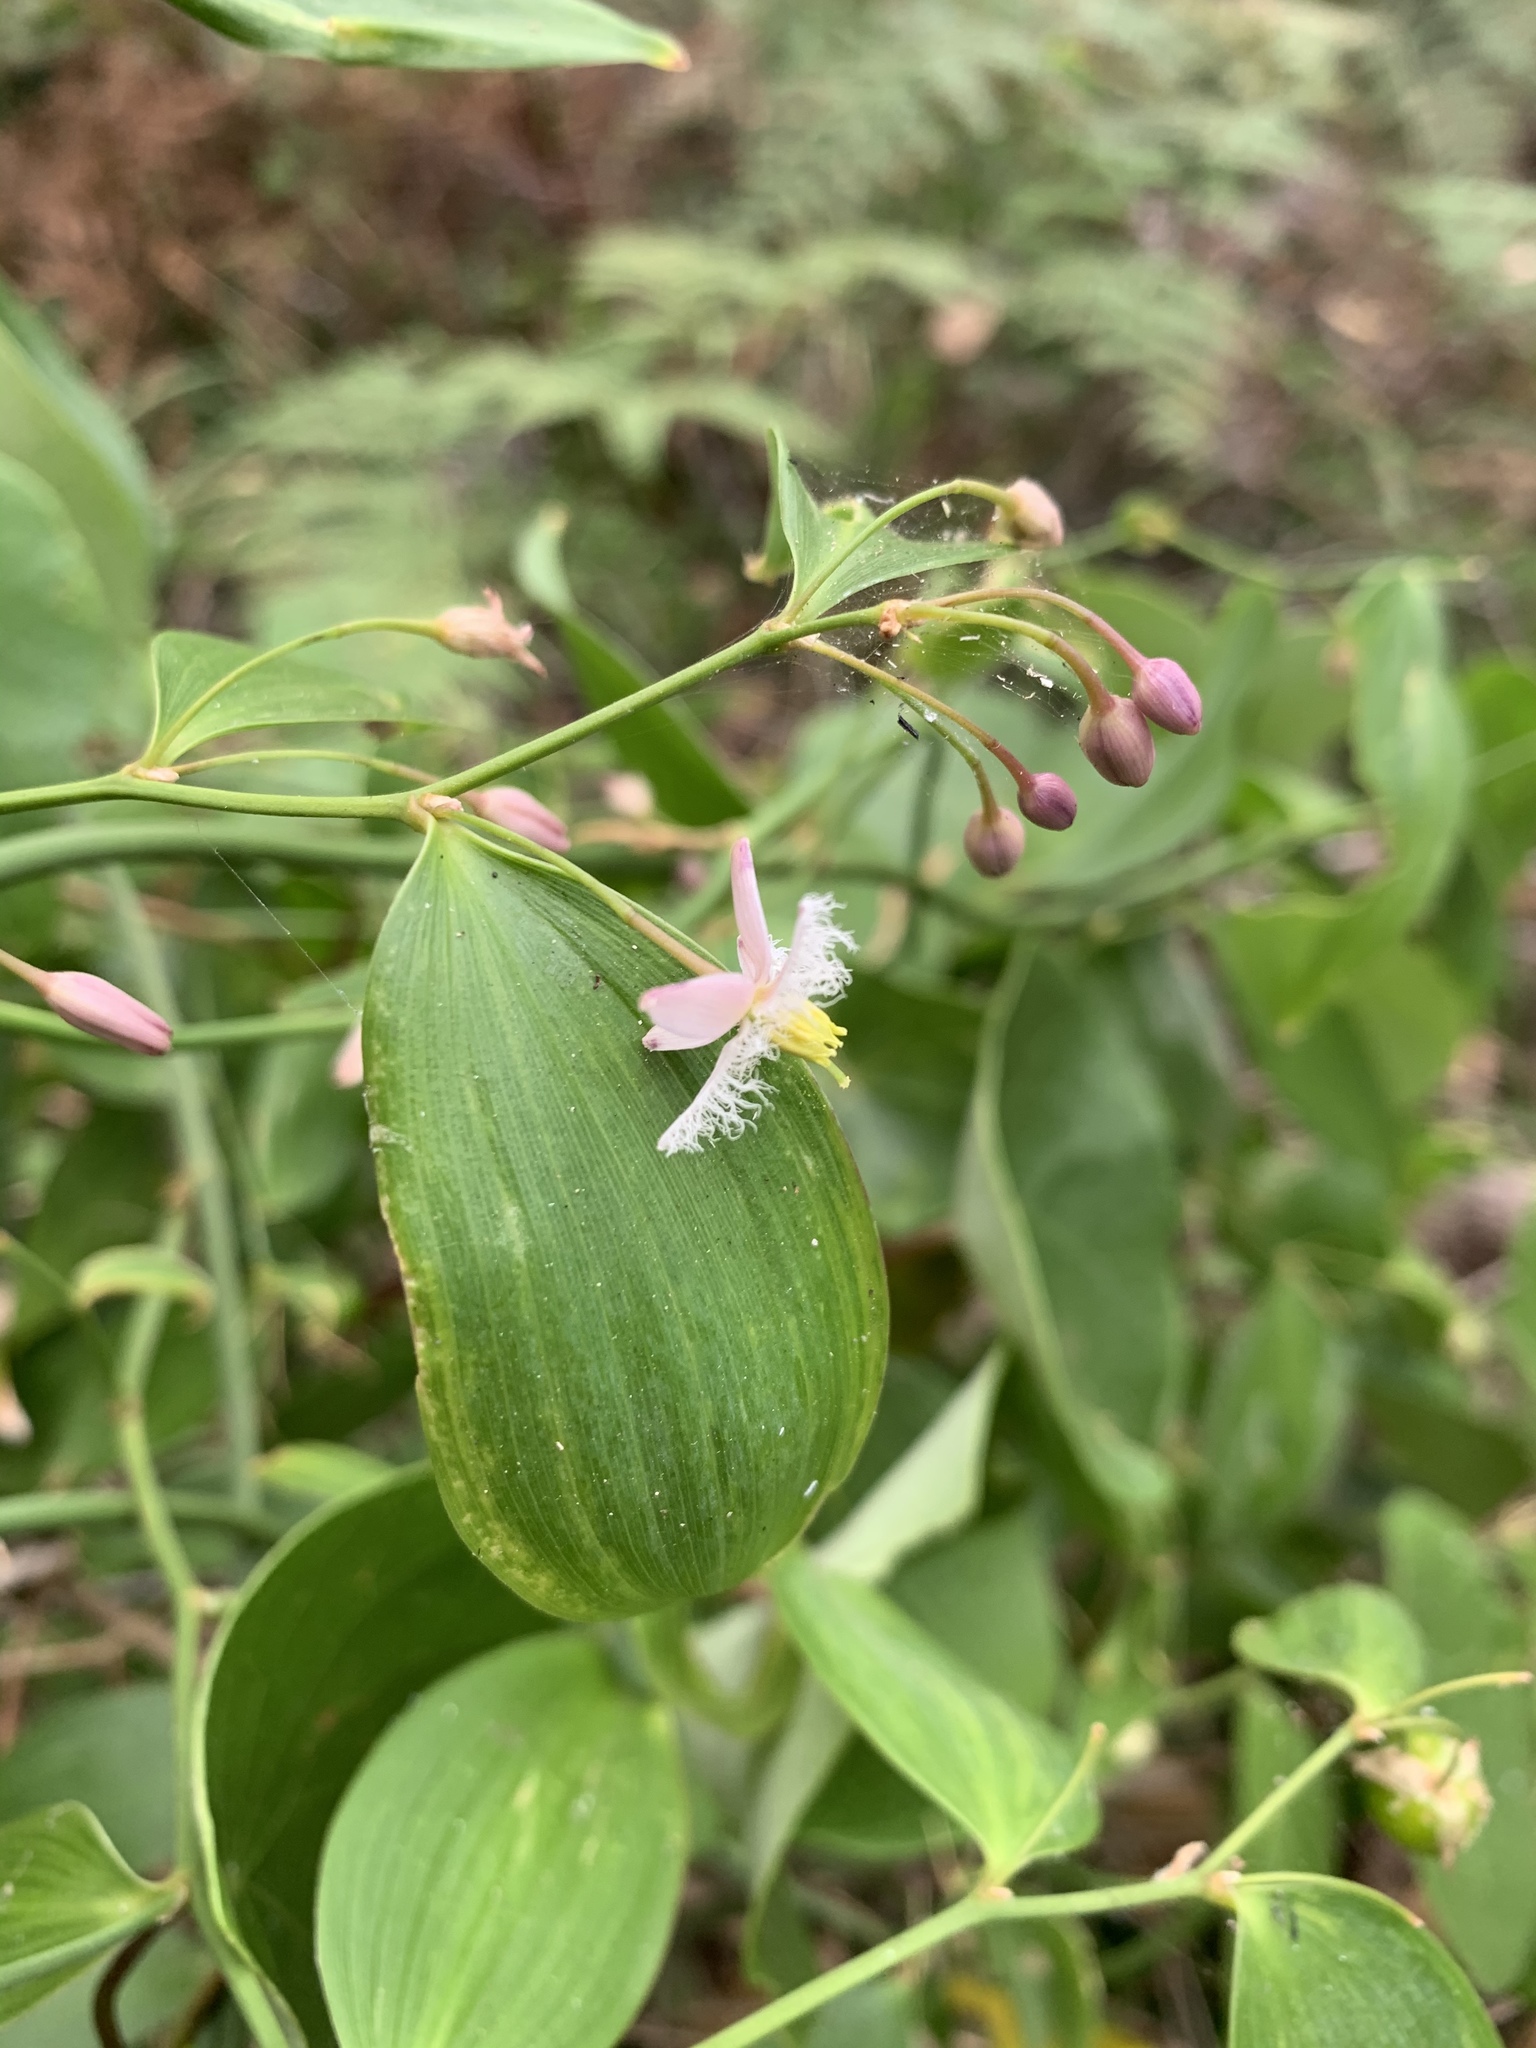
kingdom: Plantae
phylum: Tracheophyta
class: Liliopsida
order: Asparagales
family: Asparagaceae
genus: Eustrephus
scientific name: Eustrephus latifolius
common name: Orangevine
